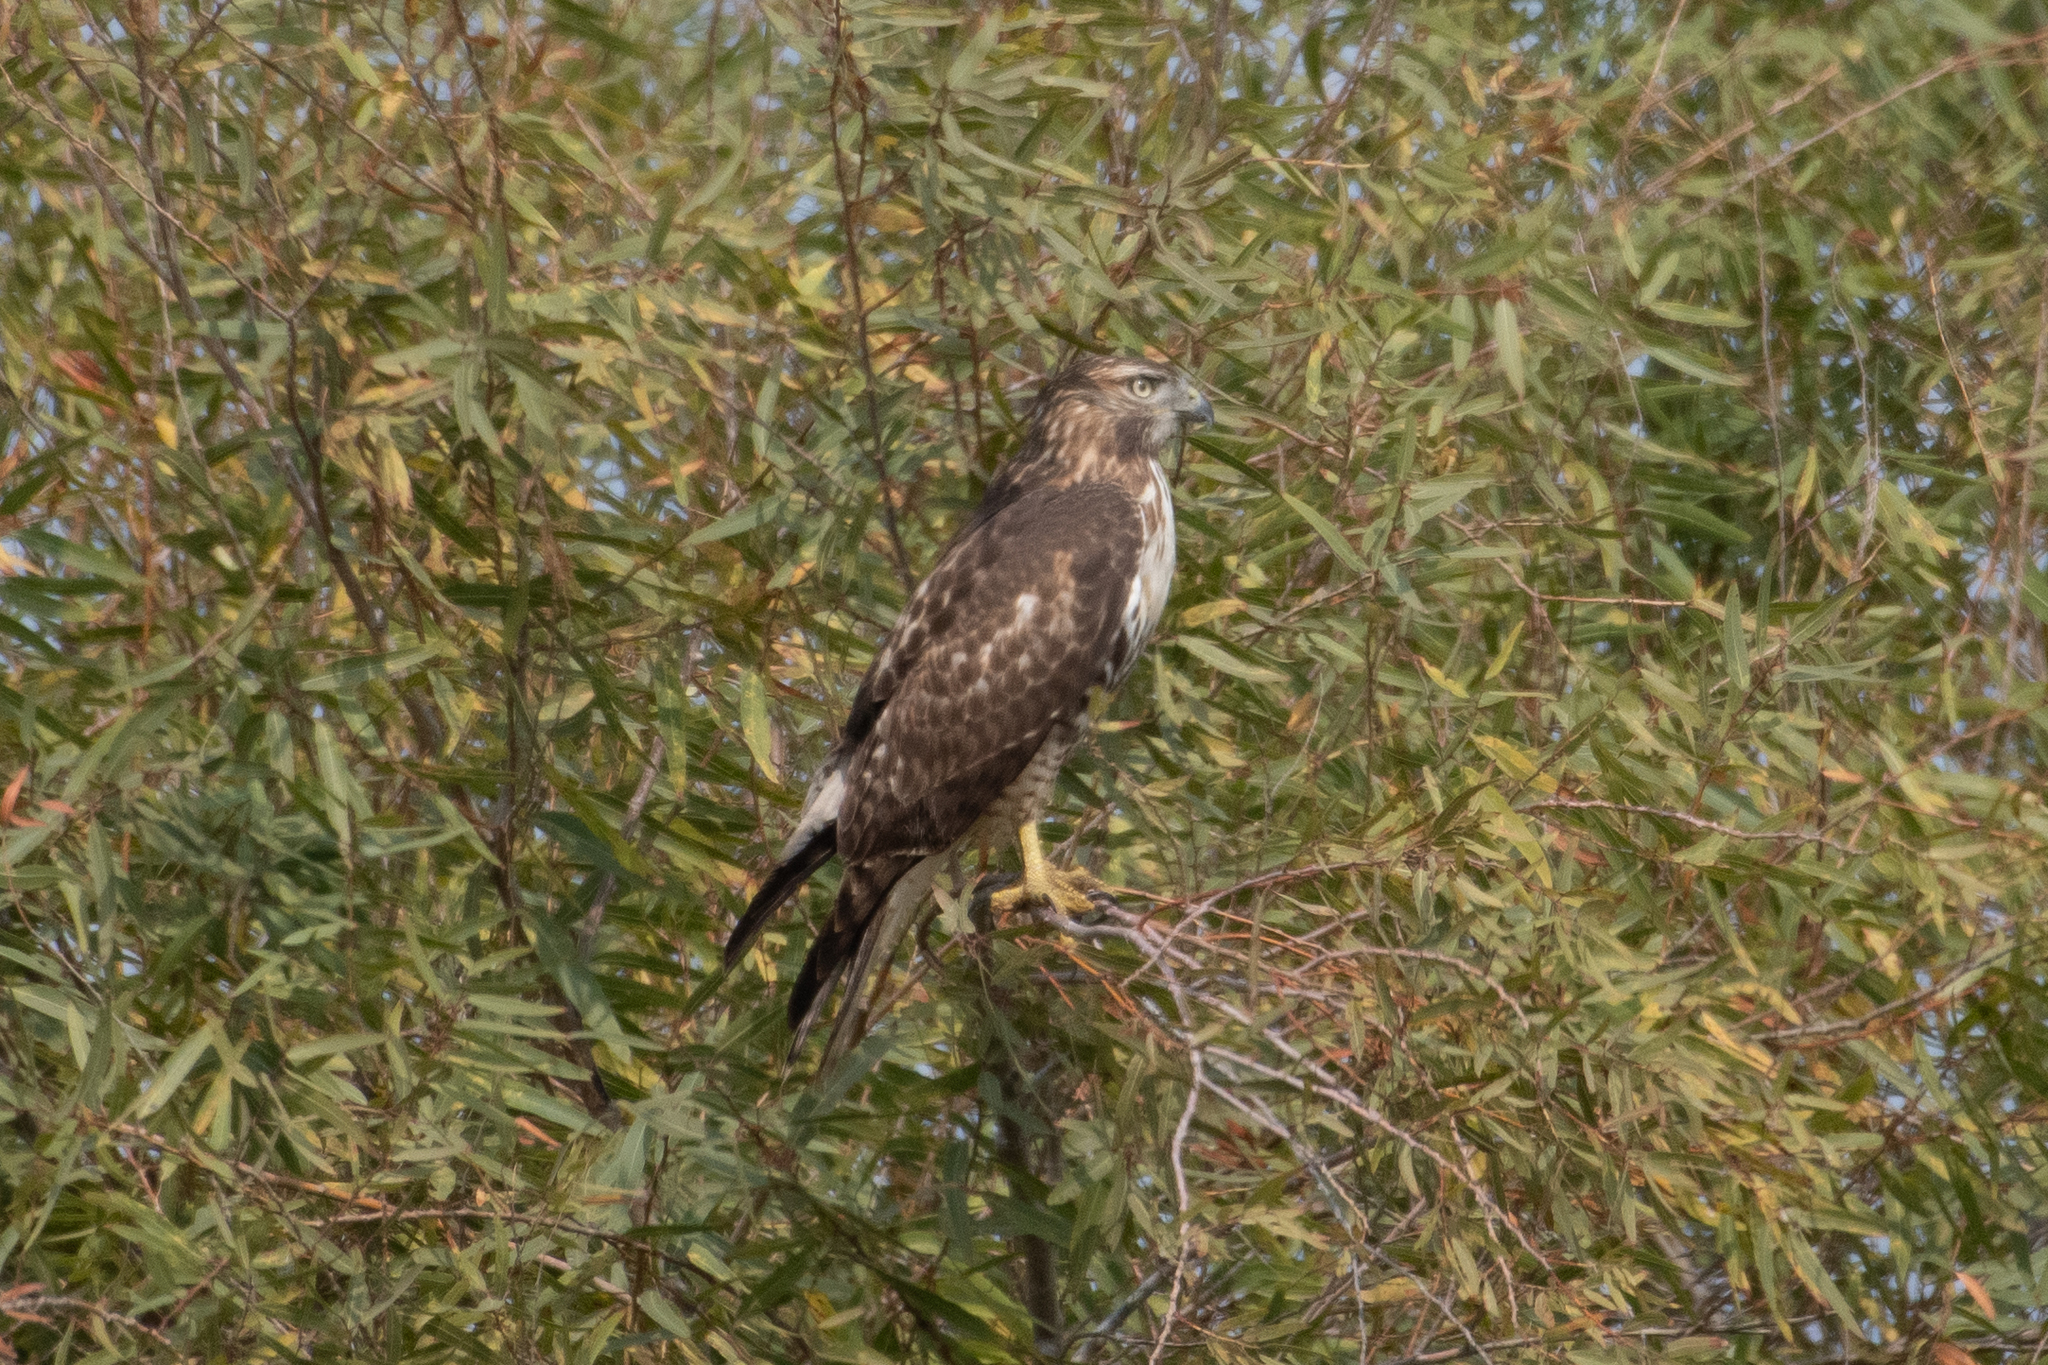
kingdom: Animalia
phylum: Chordata
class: Aves
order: Accipitriformes
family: Accipitridae
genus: Buteo
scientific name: Buteo jamaicensis
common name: Red-tailed hawk
